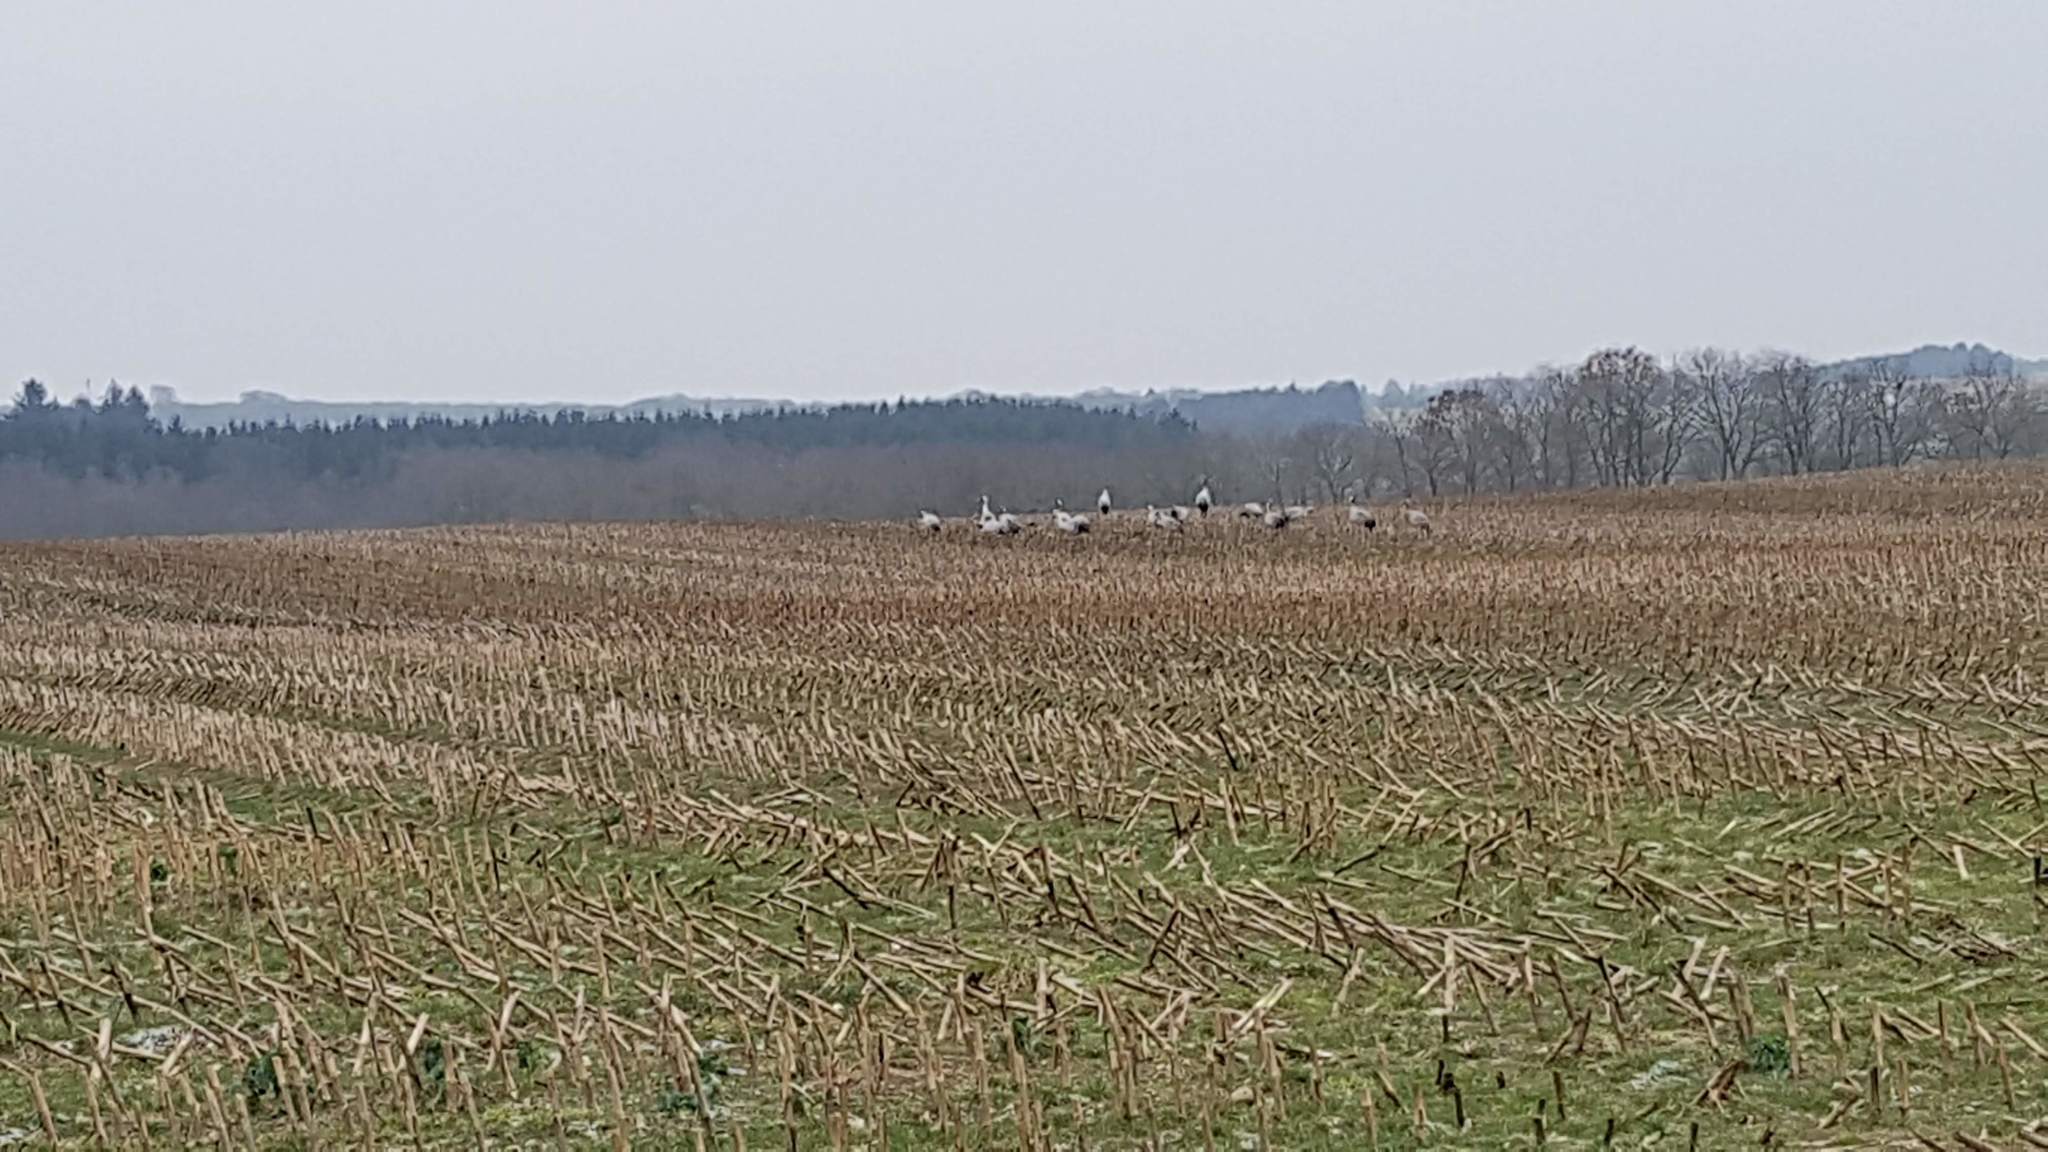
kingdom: Animalia
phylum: Chordata
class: Aves
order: Gruiformes
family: Gruidae
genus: Grus
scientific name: Grus grus
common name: Common crane
